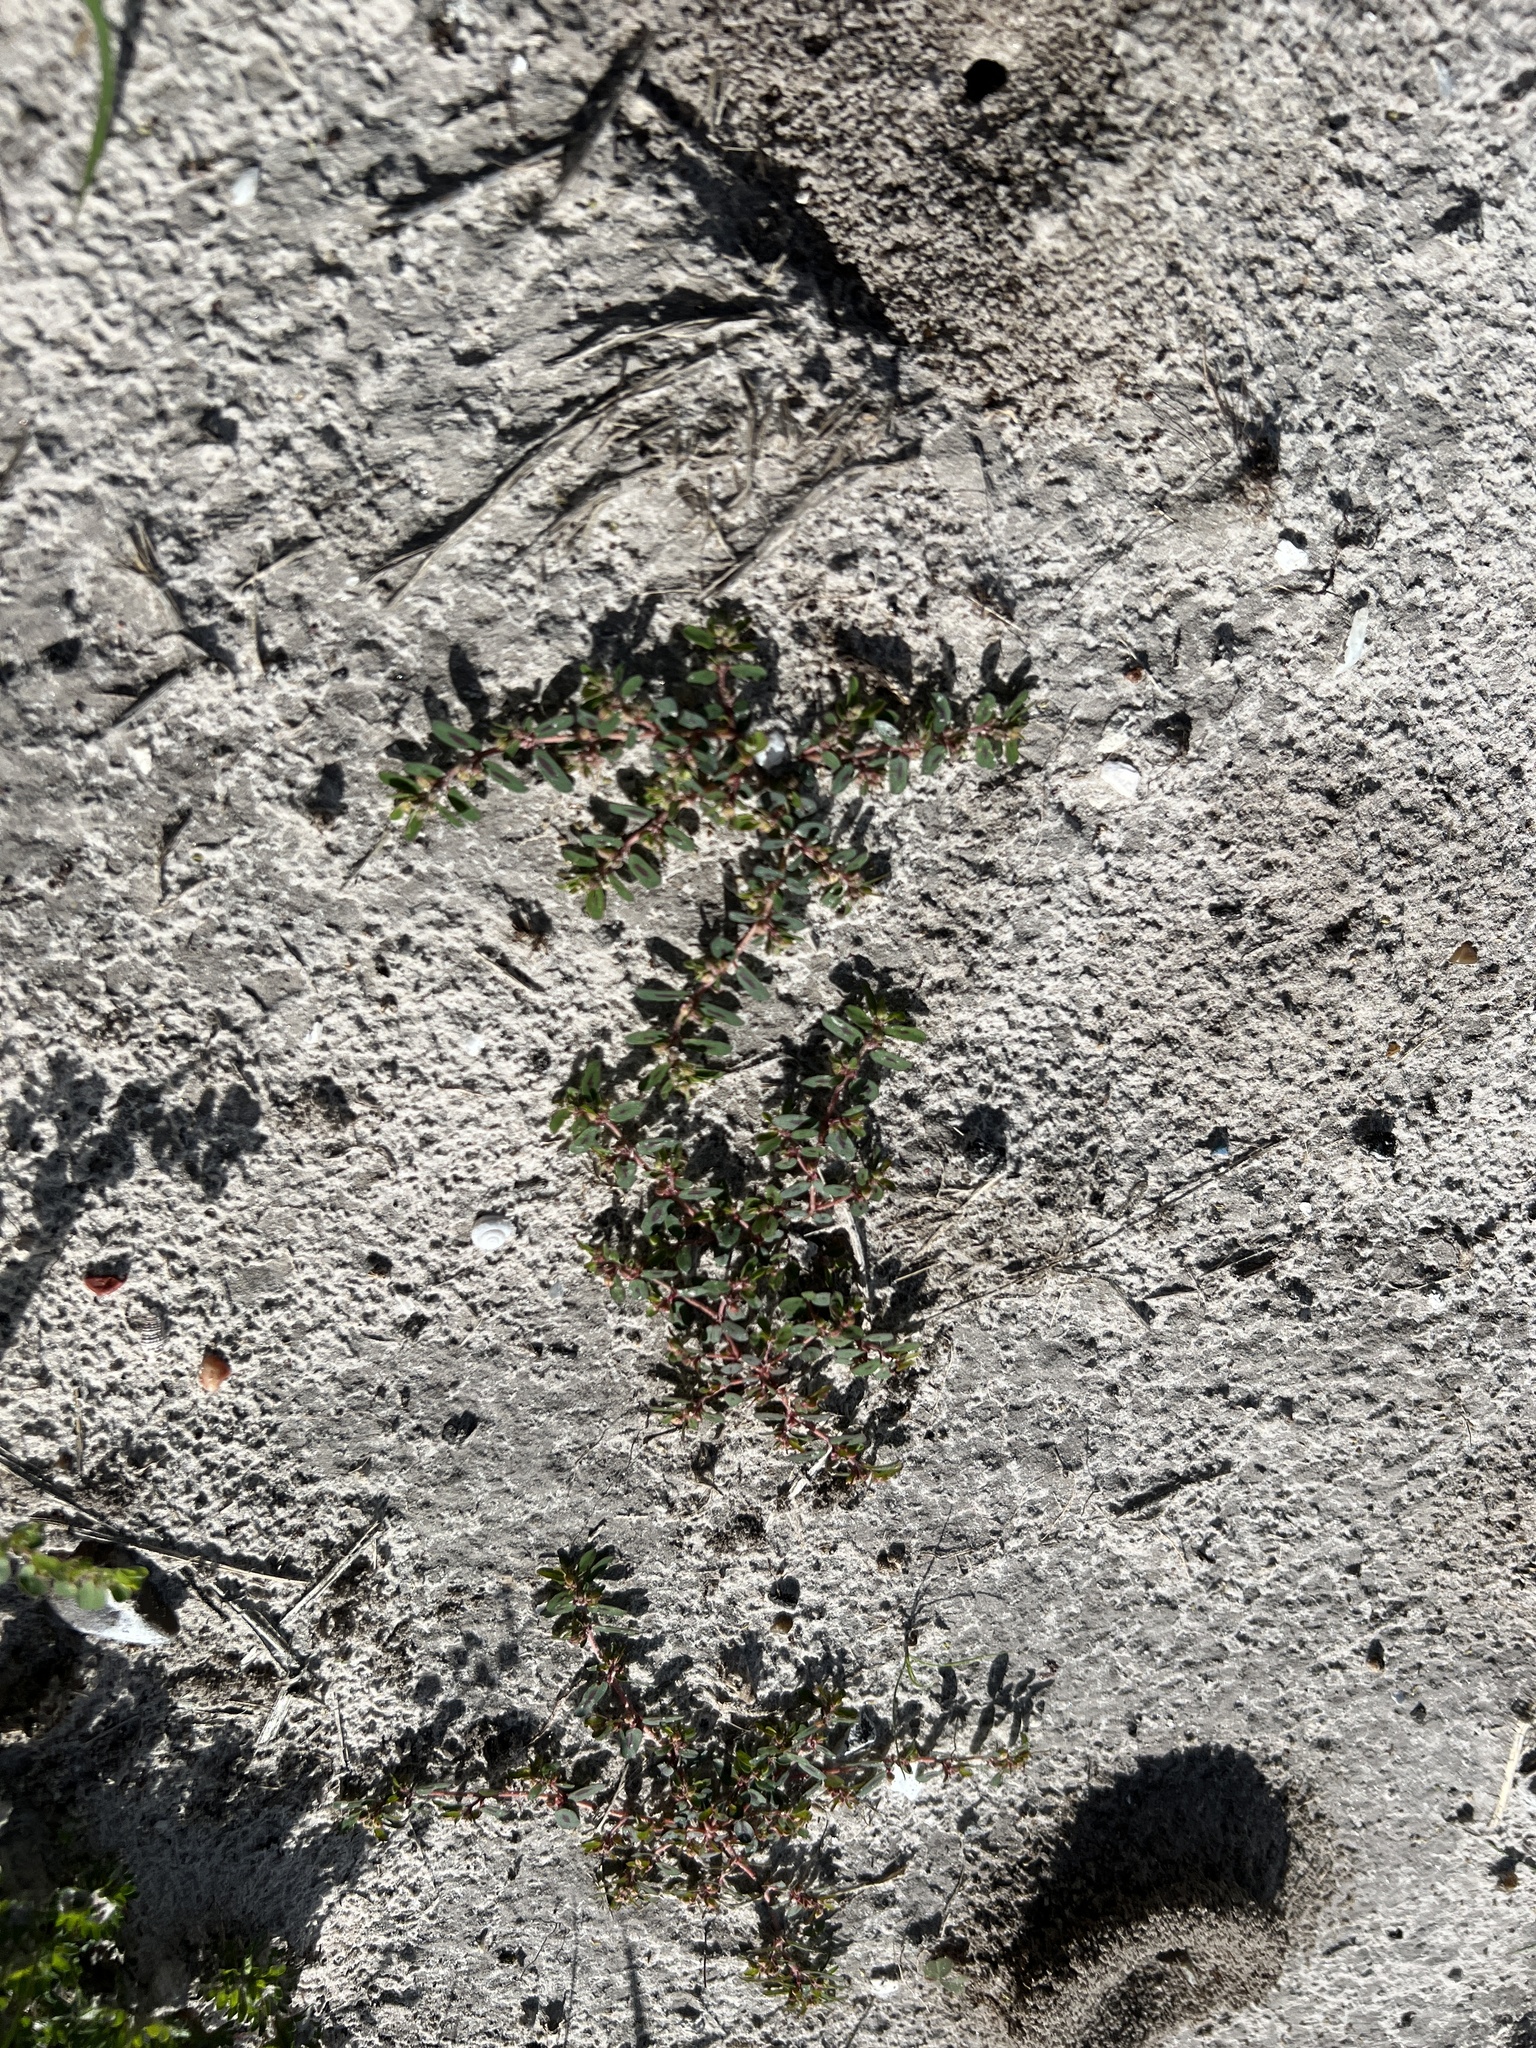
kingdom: Plantae
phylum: Tracheophyta
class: Magnoliopsida
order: Malpighiales
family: Euphorbiaceae
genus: Euphorbia
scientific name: Euphorbia maculata
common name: Spotted spurge
